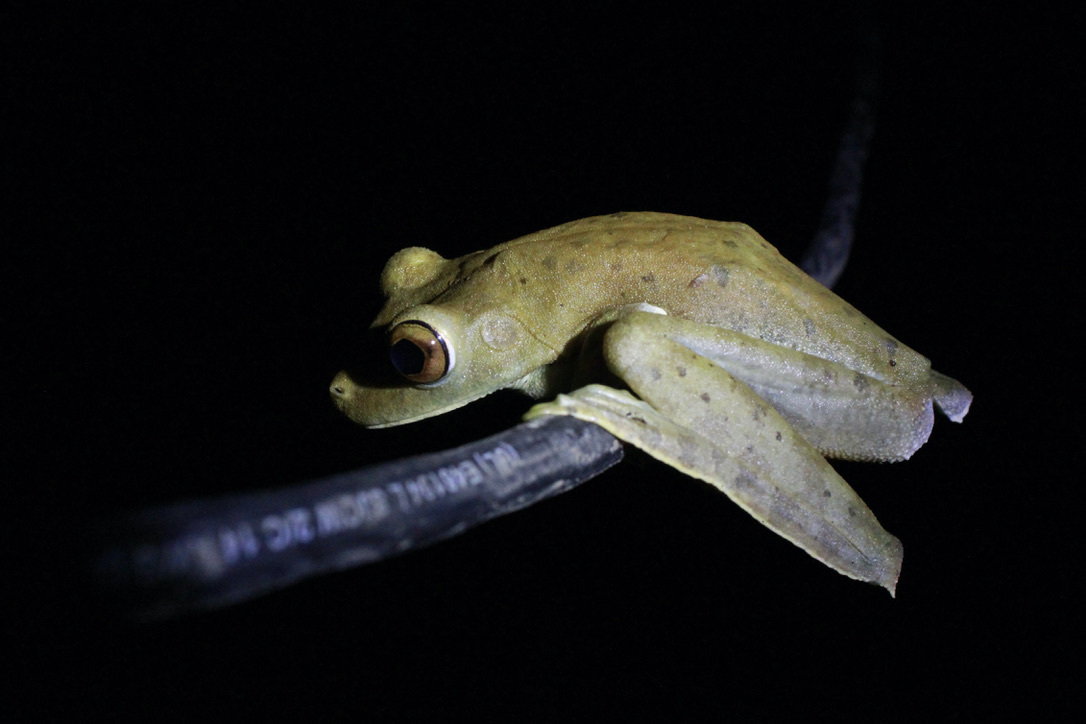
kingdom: Animalia
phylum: Chordata
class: Amphibia
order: Anura
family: Hylidae
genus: Boana
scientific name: Boana boans
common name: Giant gladiator treefrog
